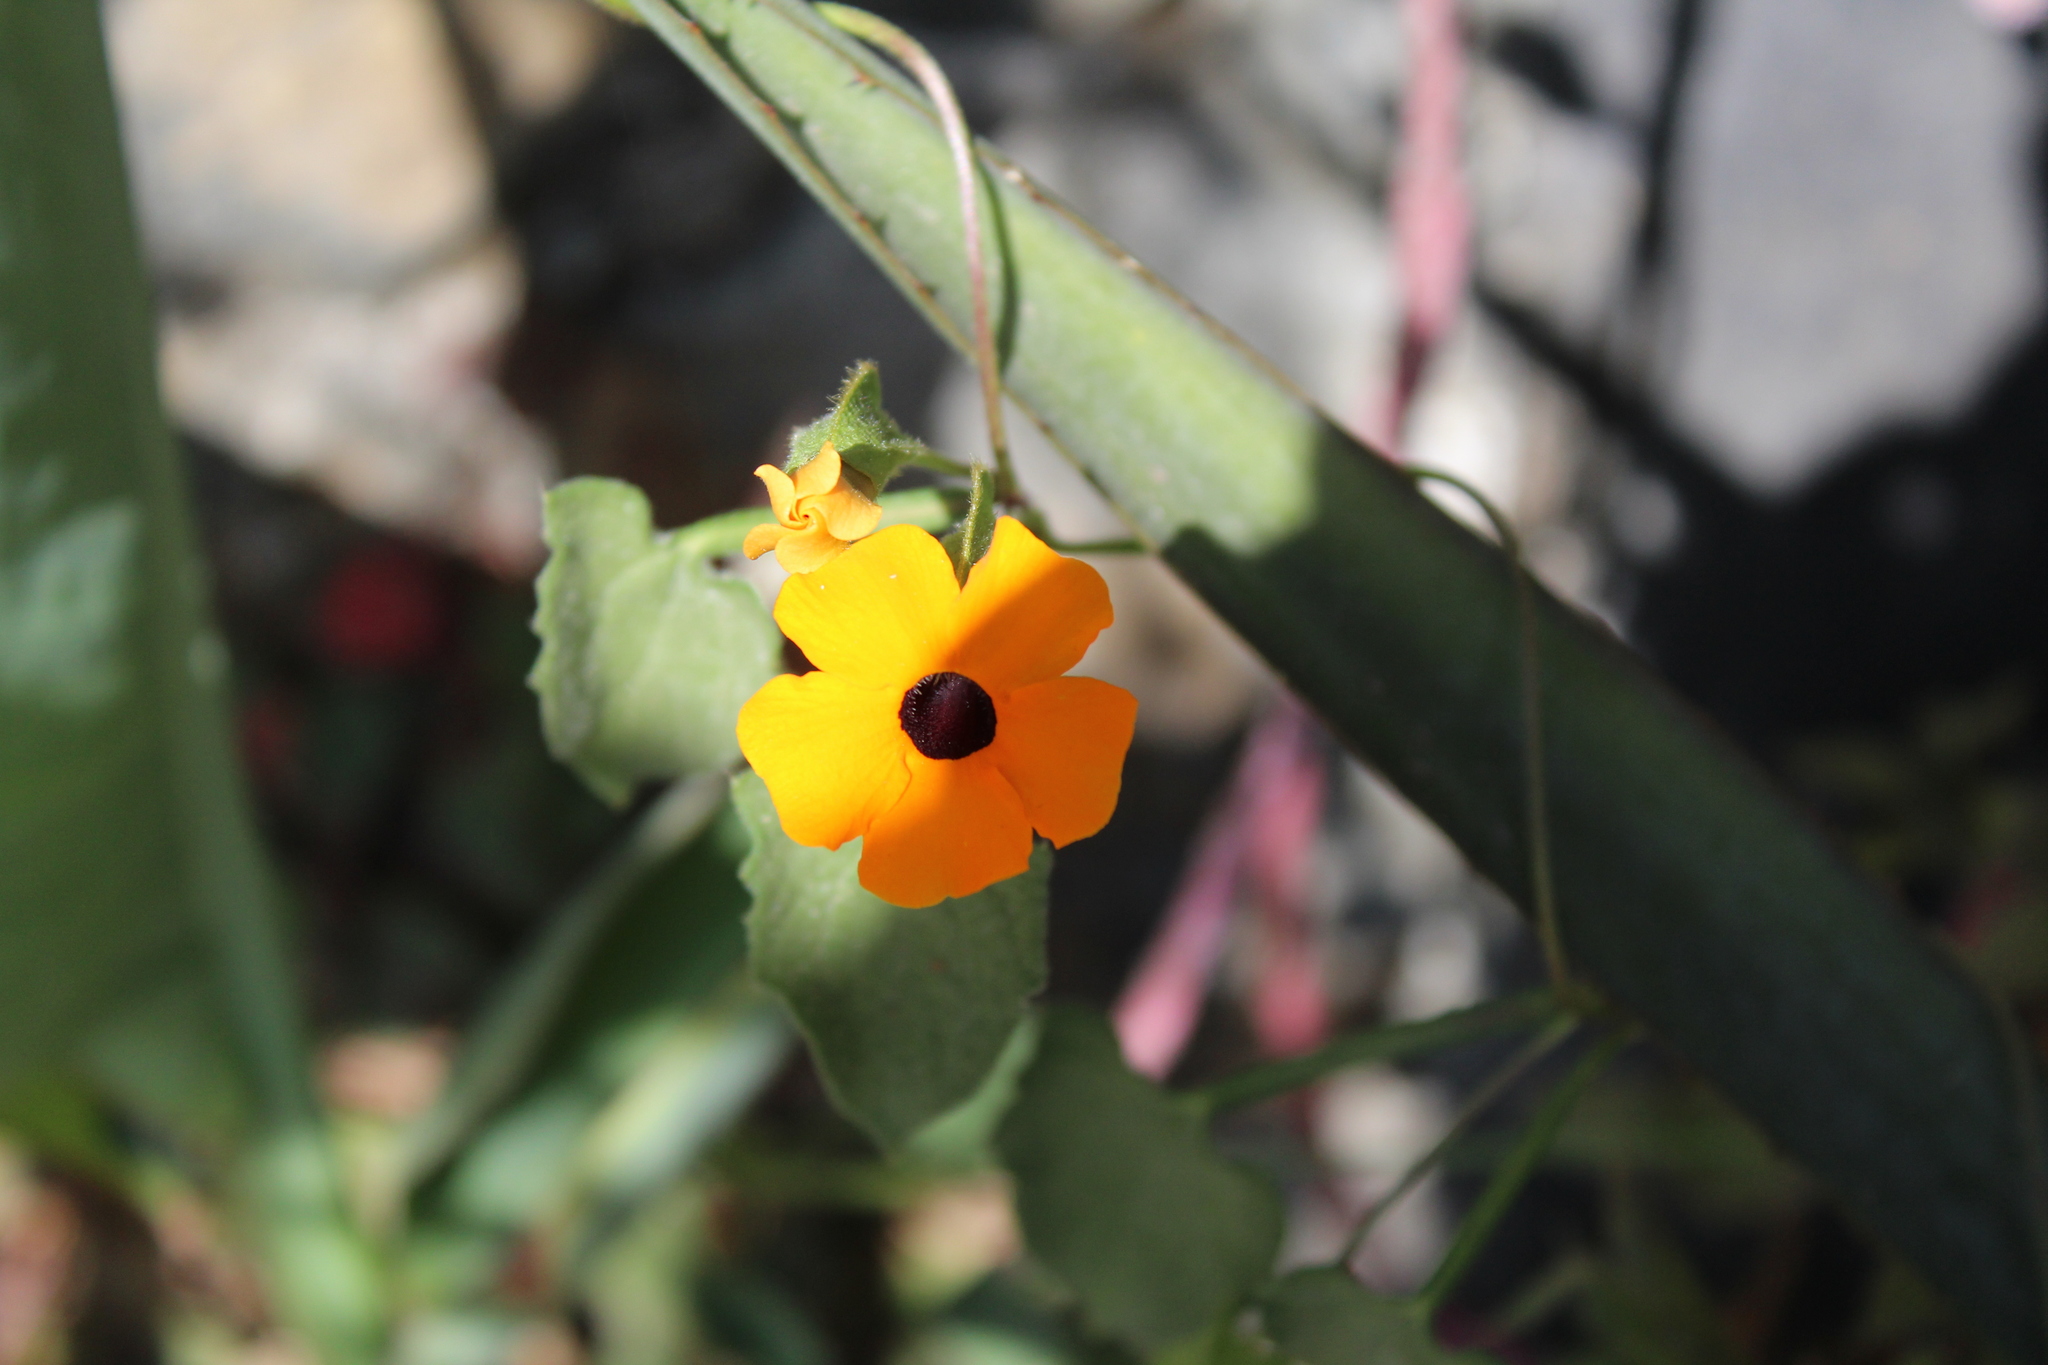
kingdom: Plantae
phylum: Tracheophyta
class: Magnoliopsida
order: Lamiales
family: Acanthaceae
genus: Thunbergia
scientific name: Thunbergia alata
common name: Blackeyed susan vine
